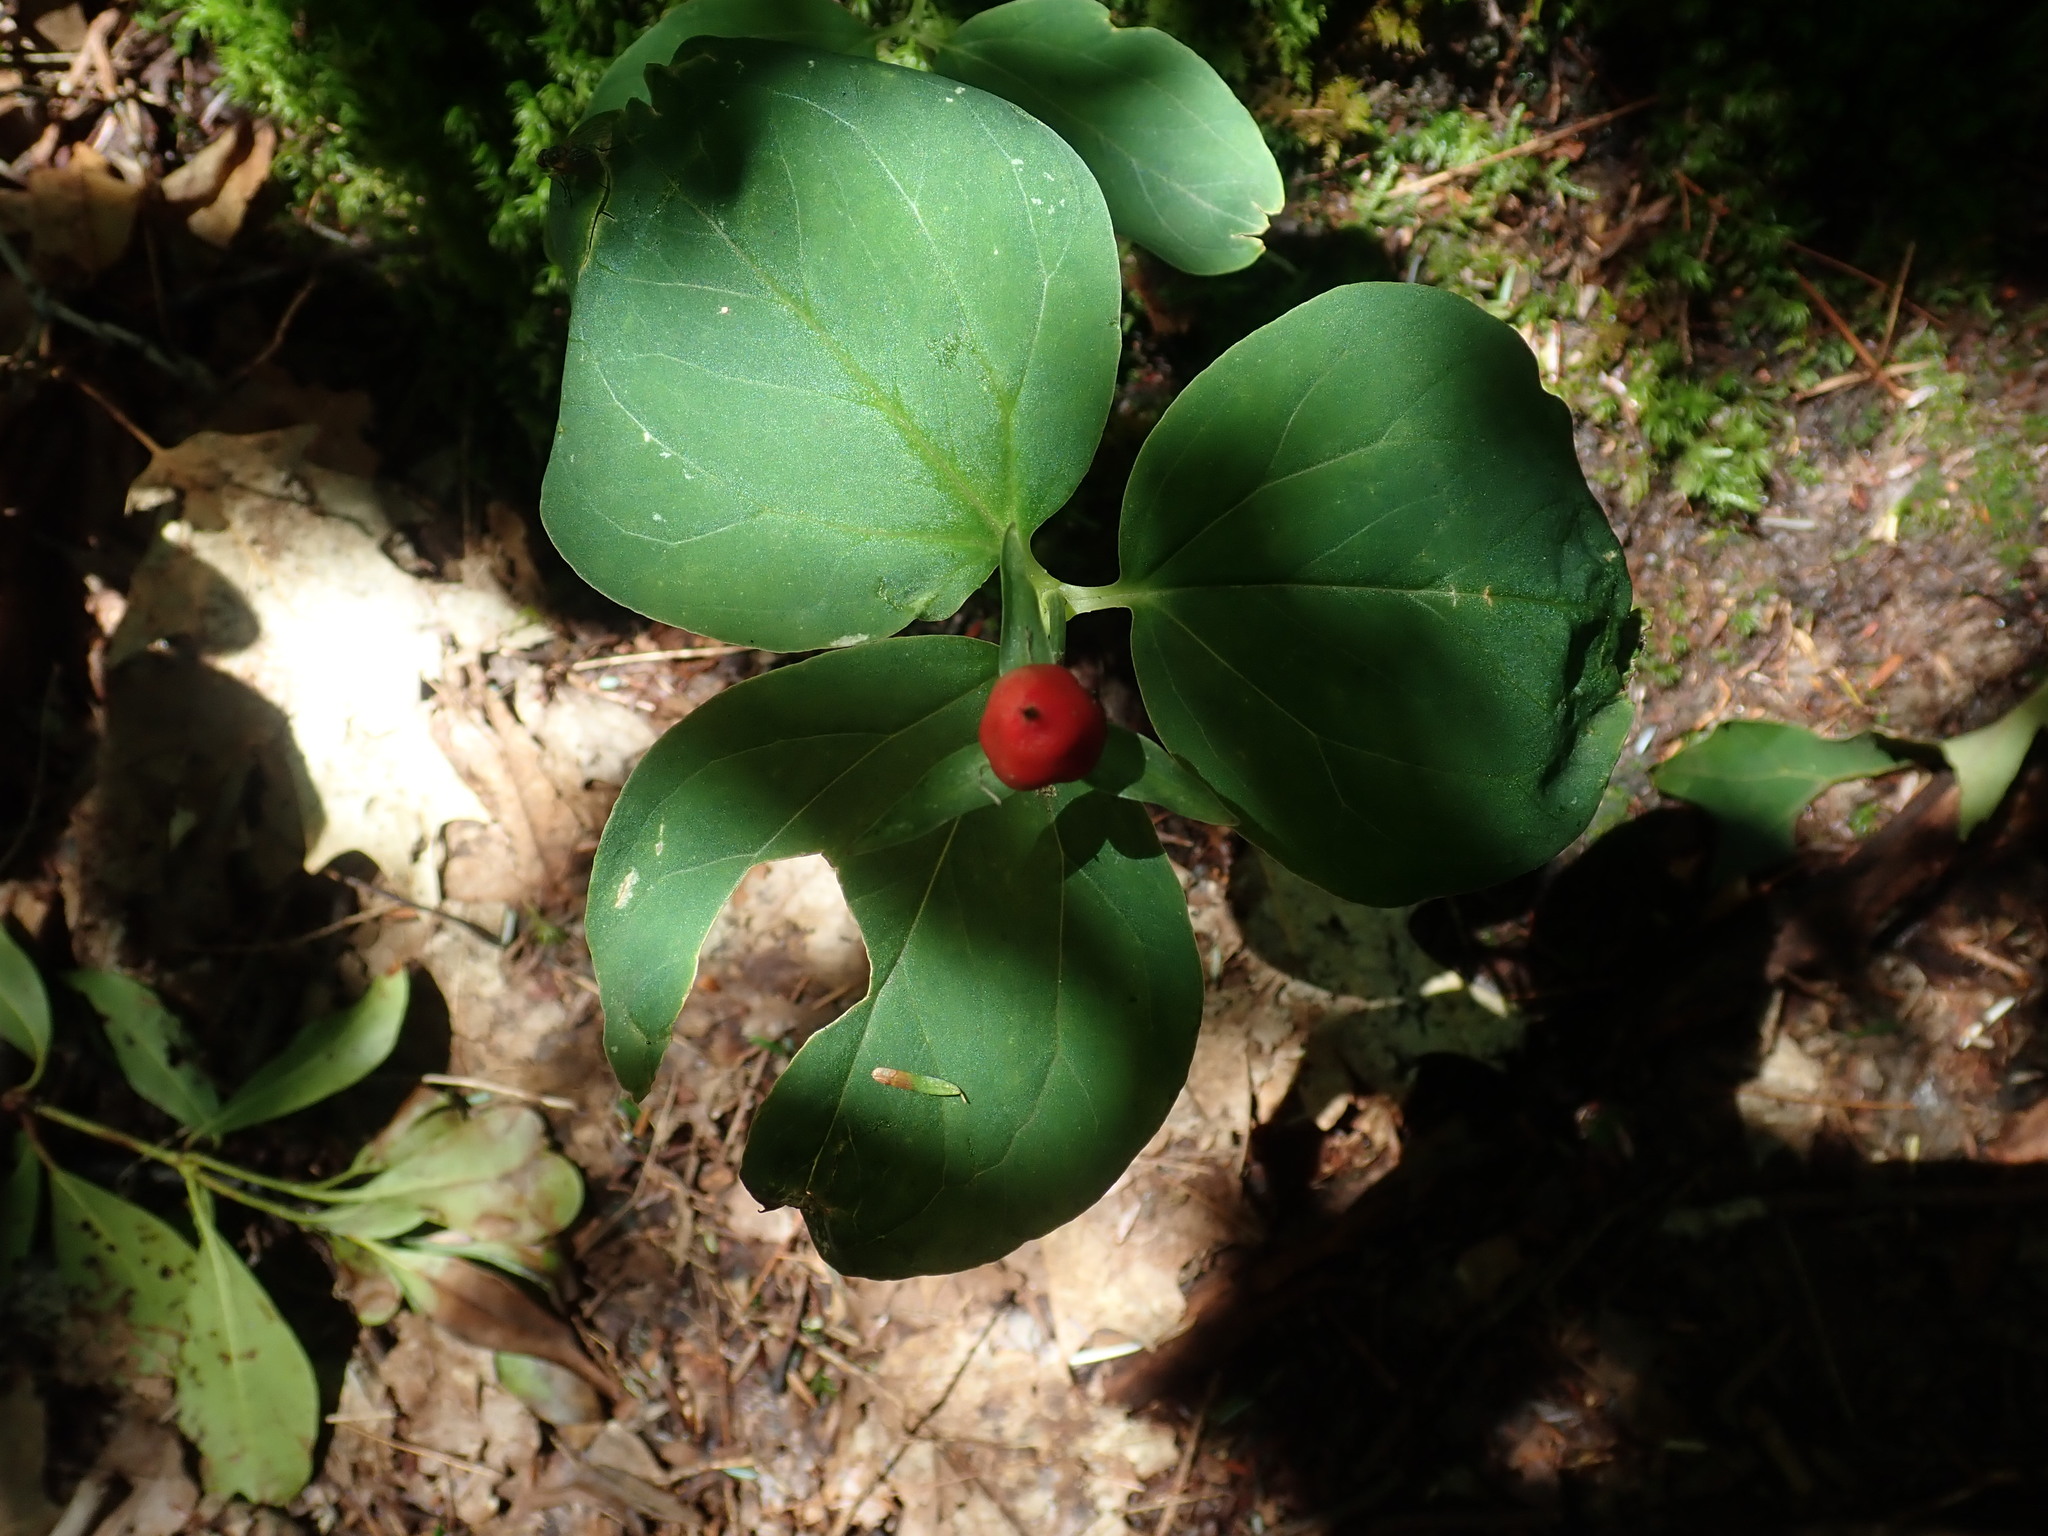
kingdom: Plantae
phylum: Tracheophyta
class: Liliopsida
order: Liliales
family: Melanthiaceae
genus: Trillium
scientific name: Trillium undulatum
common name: Paint trillium
